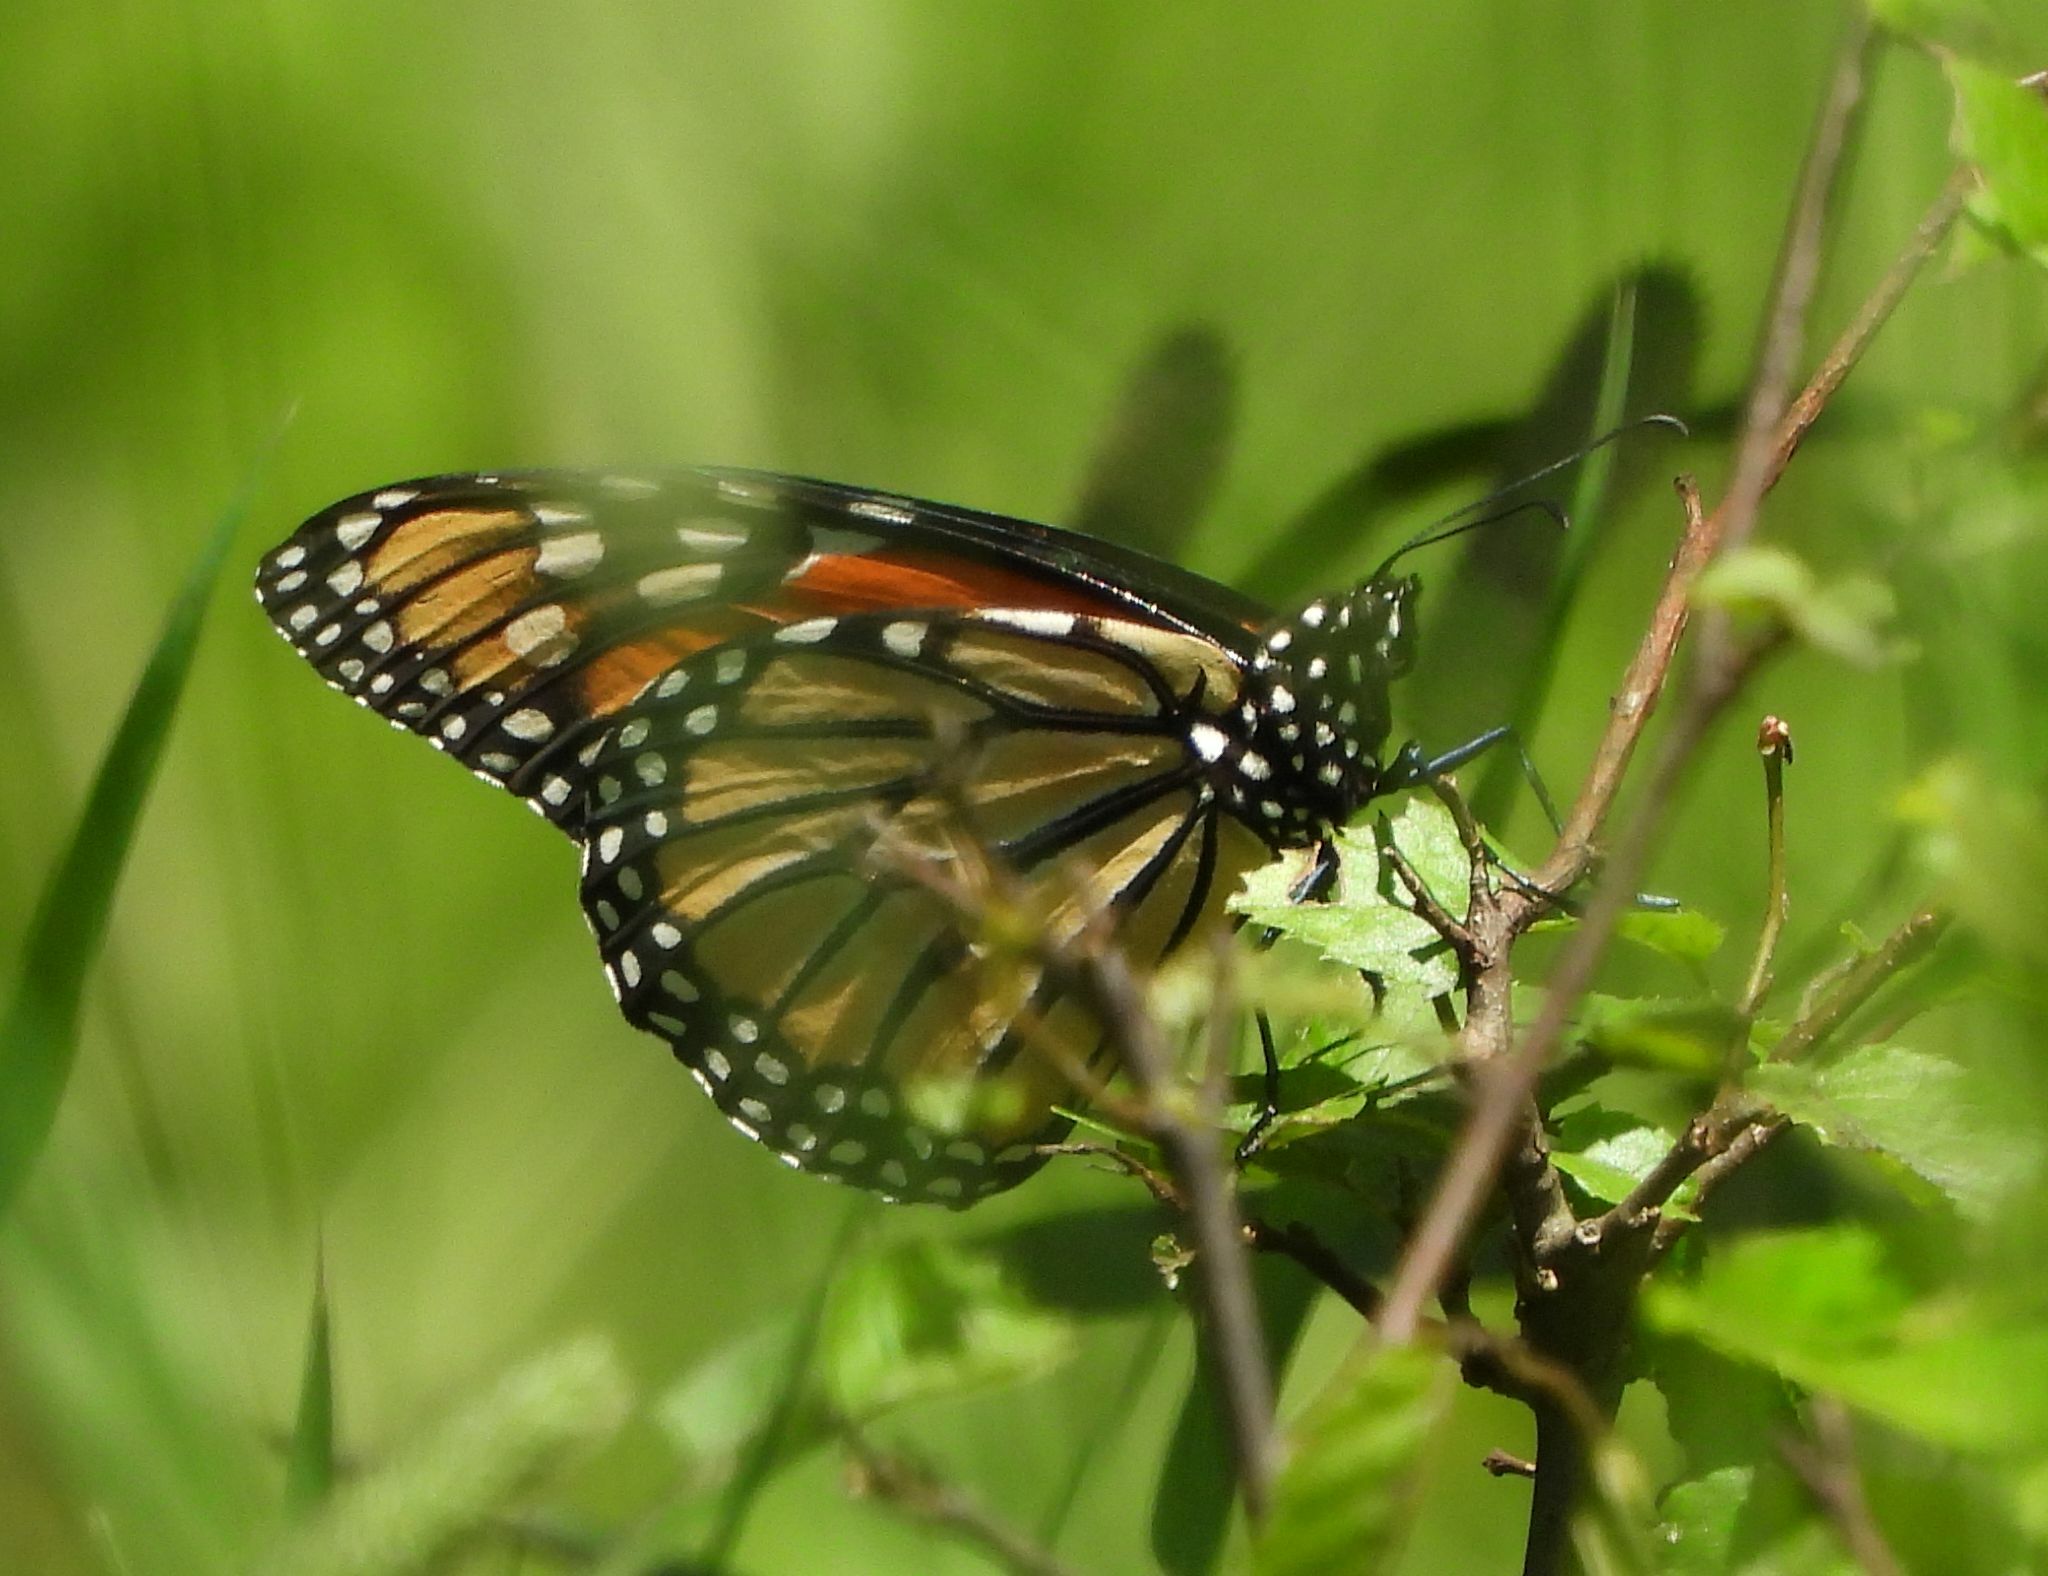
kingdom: Animalia
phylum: Arthropoda
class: Insecta
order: Lepidoptera
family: Nymphalidae
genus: Danaus
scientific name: Danaus plexippus
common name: Monarch
